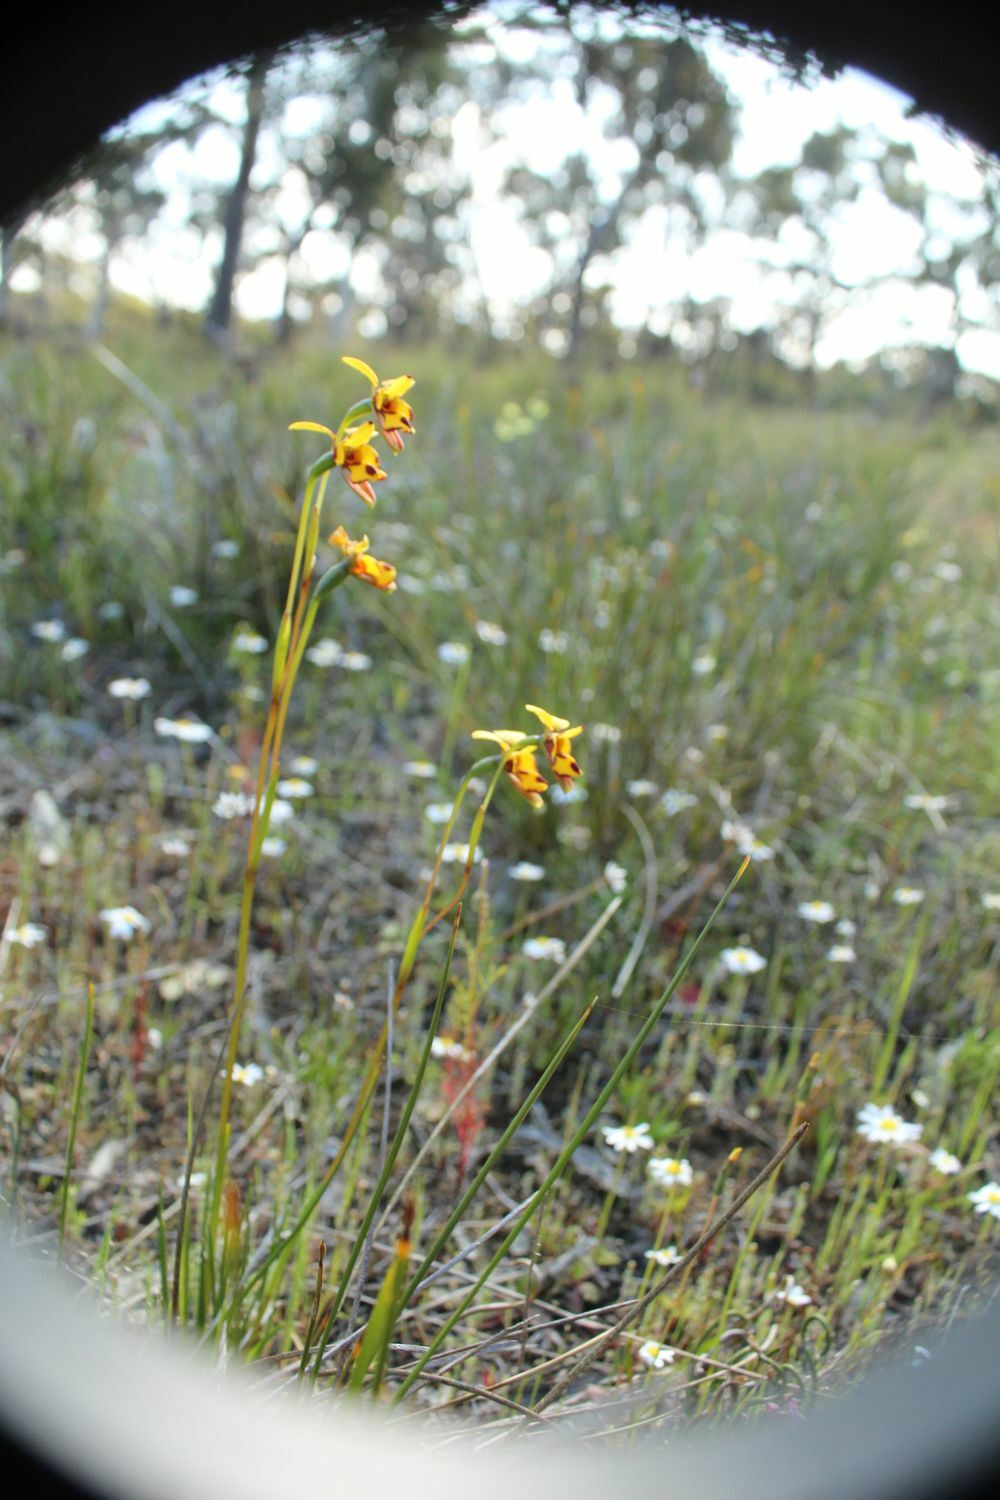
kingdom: Plantae
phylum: Tracheophyta
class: Liliopsida
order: Asparagales
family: Orchidaceae
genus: Diuris
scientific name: Diuris decrementum
